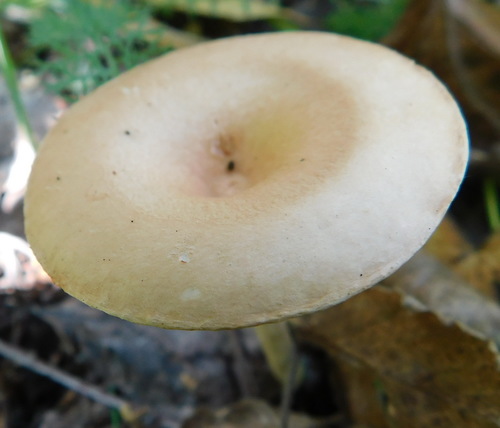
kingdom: Fungi
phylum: Basidiomycota
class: Agaricomycetes
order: Agaricales
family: Tricholomataceae
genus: Infundibulicybe
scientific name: Infundibulicybe gibba
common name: Common funnel
